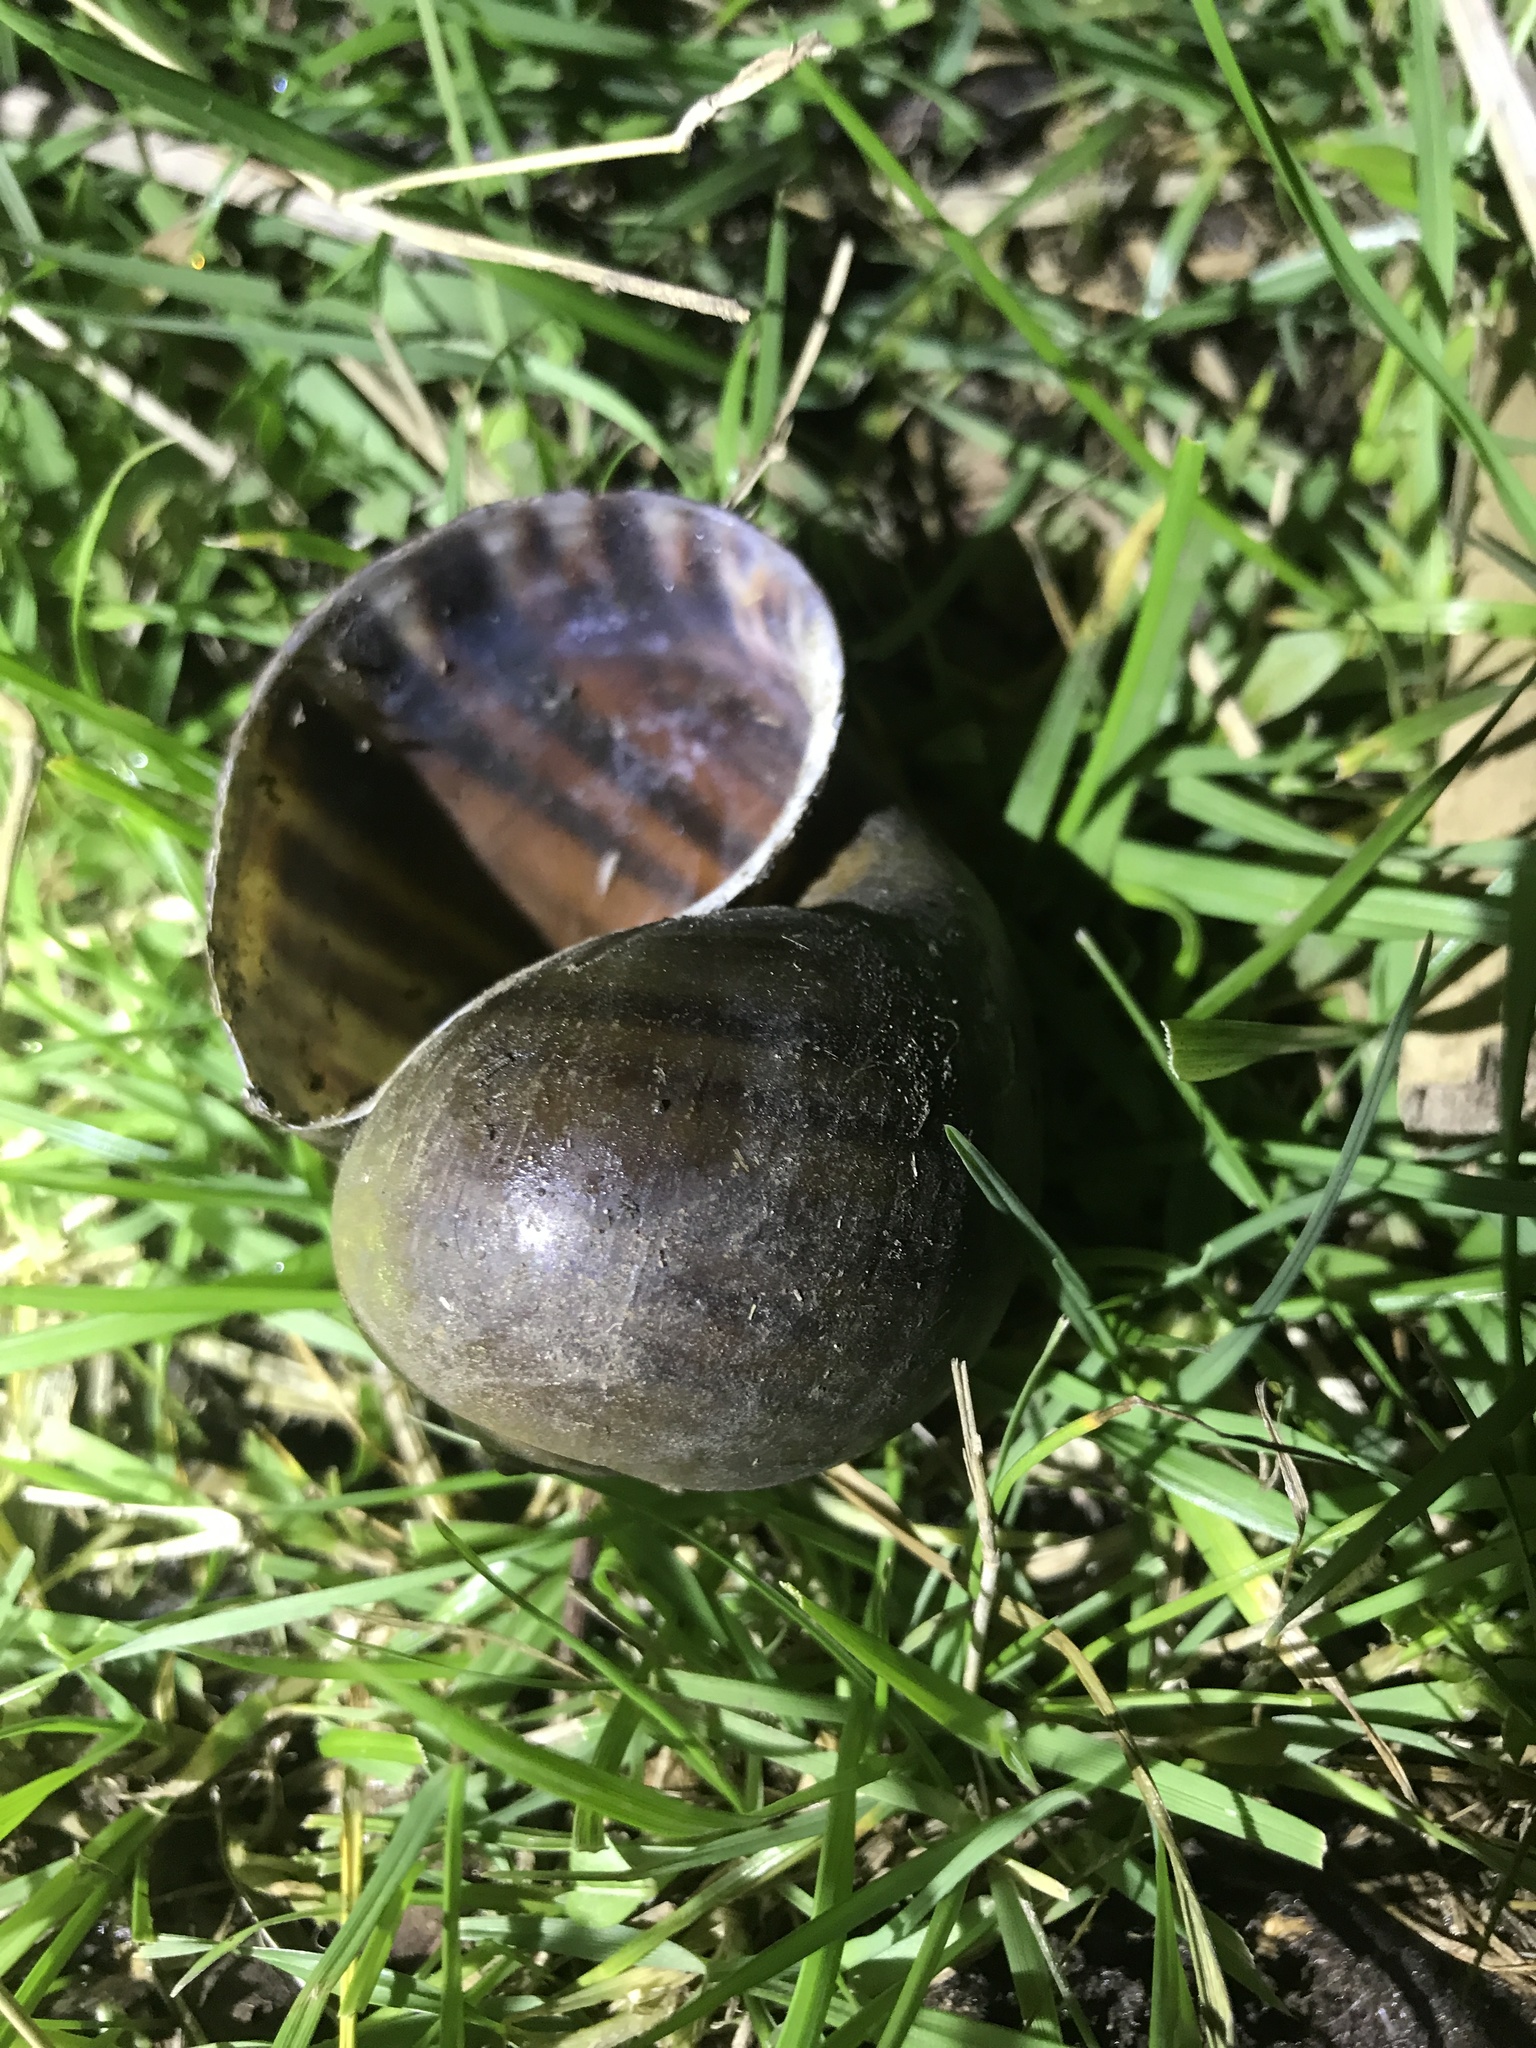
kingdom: Animalia
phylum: Mollusca
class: Gastropoda
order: Architaenioglossa
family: Ampullariidae
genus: Pomacea
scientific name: Pomacea canaliculata
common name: Channeled applesnail
